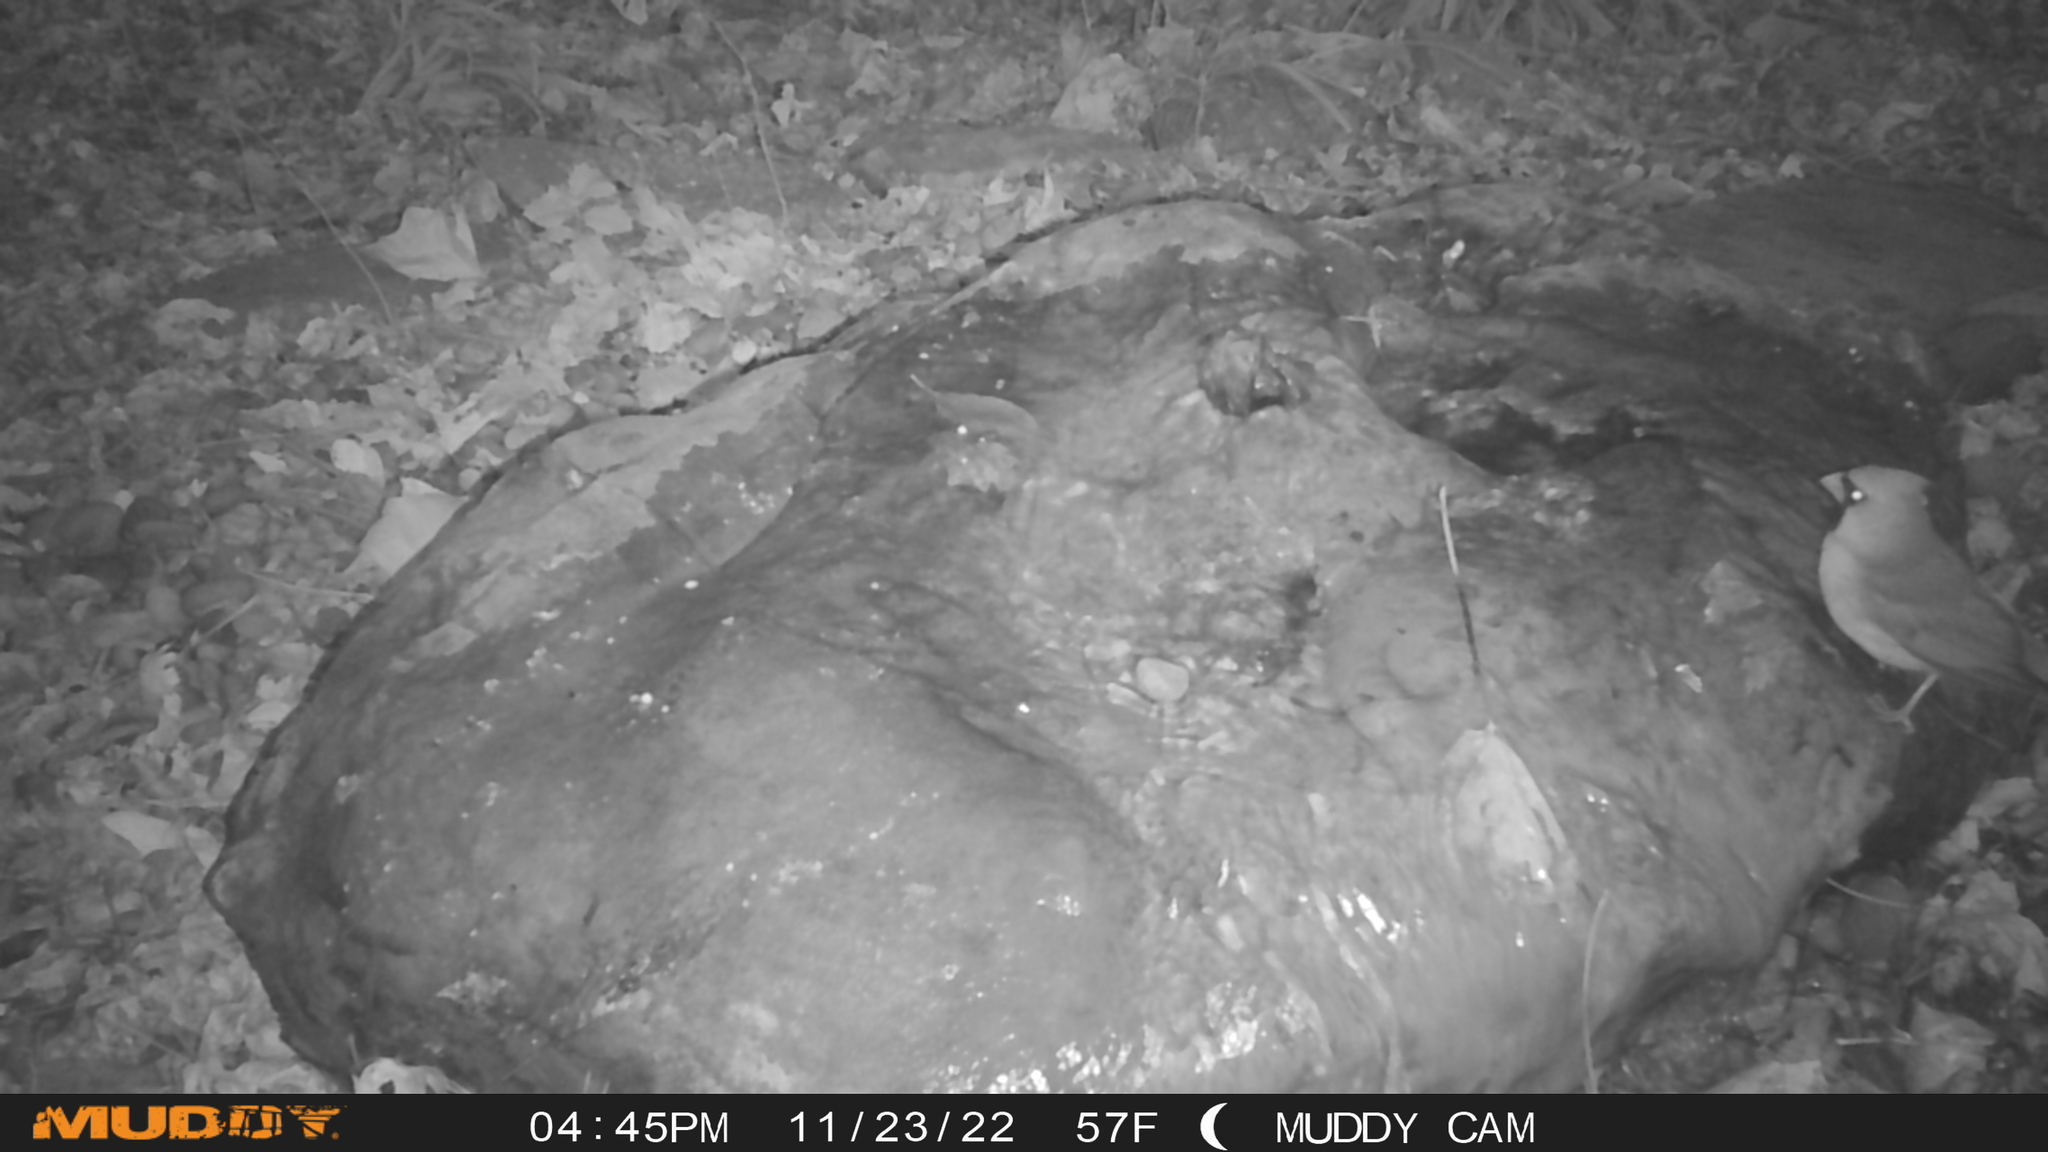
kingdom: Animalia
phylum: Chordata
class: Aves
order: Passeriformes
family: Cardinalidae
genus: Cardinalis
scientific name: Cardinalis cardinalis
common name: Northern cardinal
